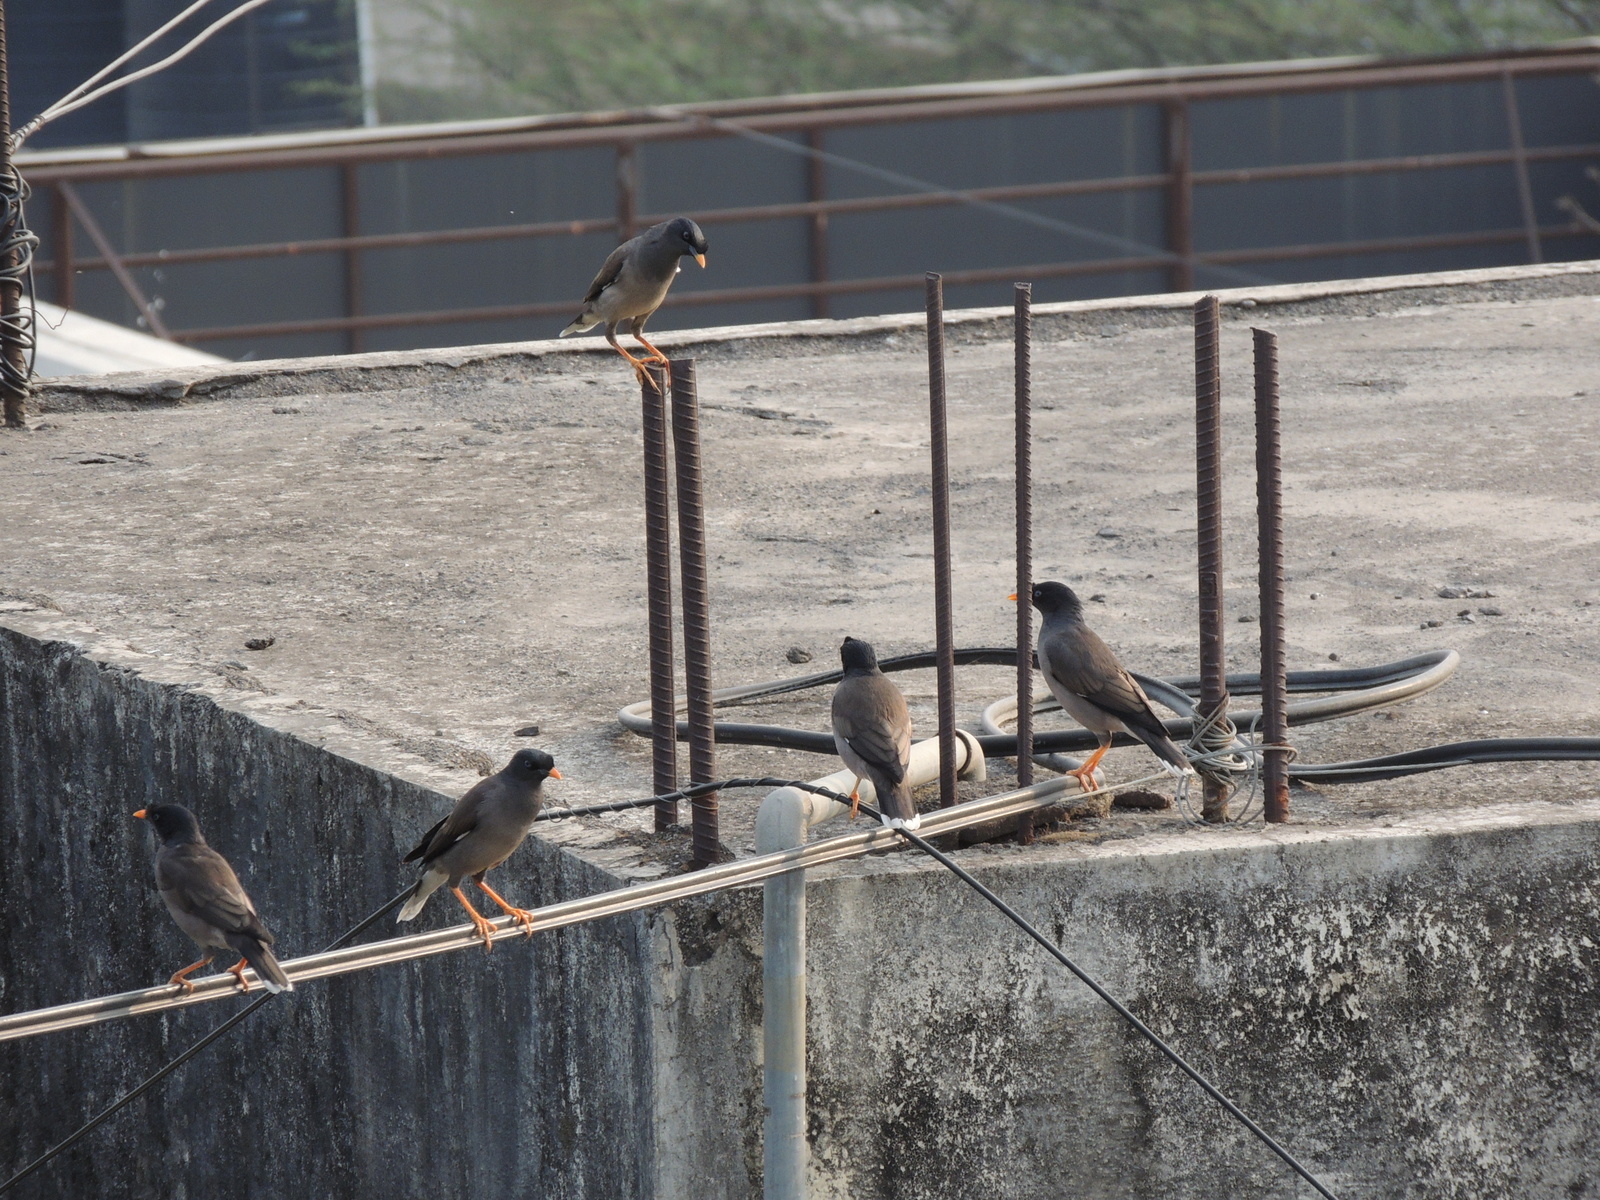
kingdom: Animalia
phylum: Chordata
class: Aves
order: Passeriformes
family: Sturnidae
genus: Acridotheres
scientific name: Acridotheres fuscus
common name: Jungle myna
